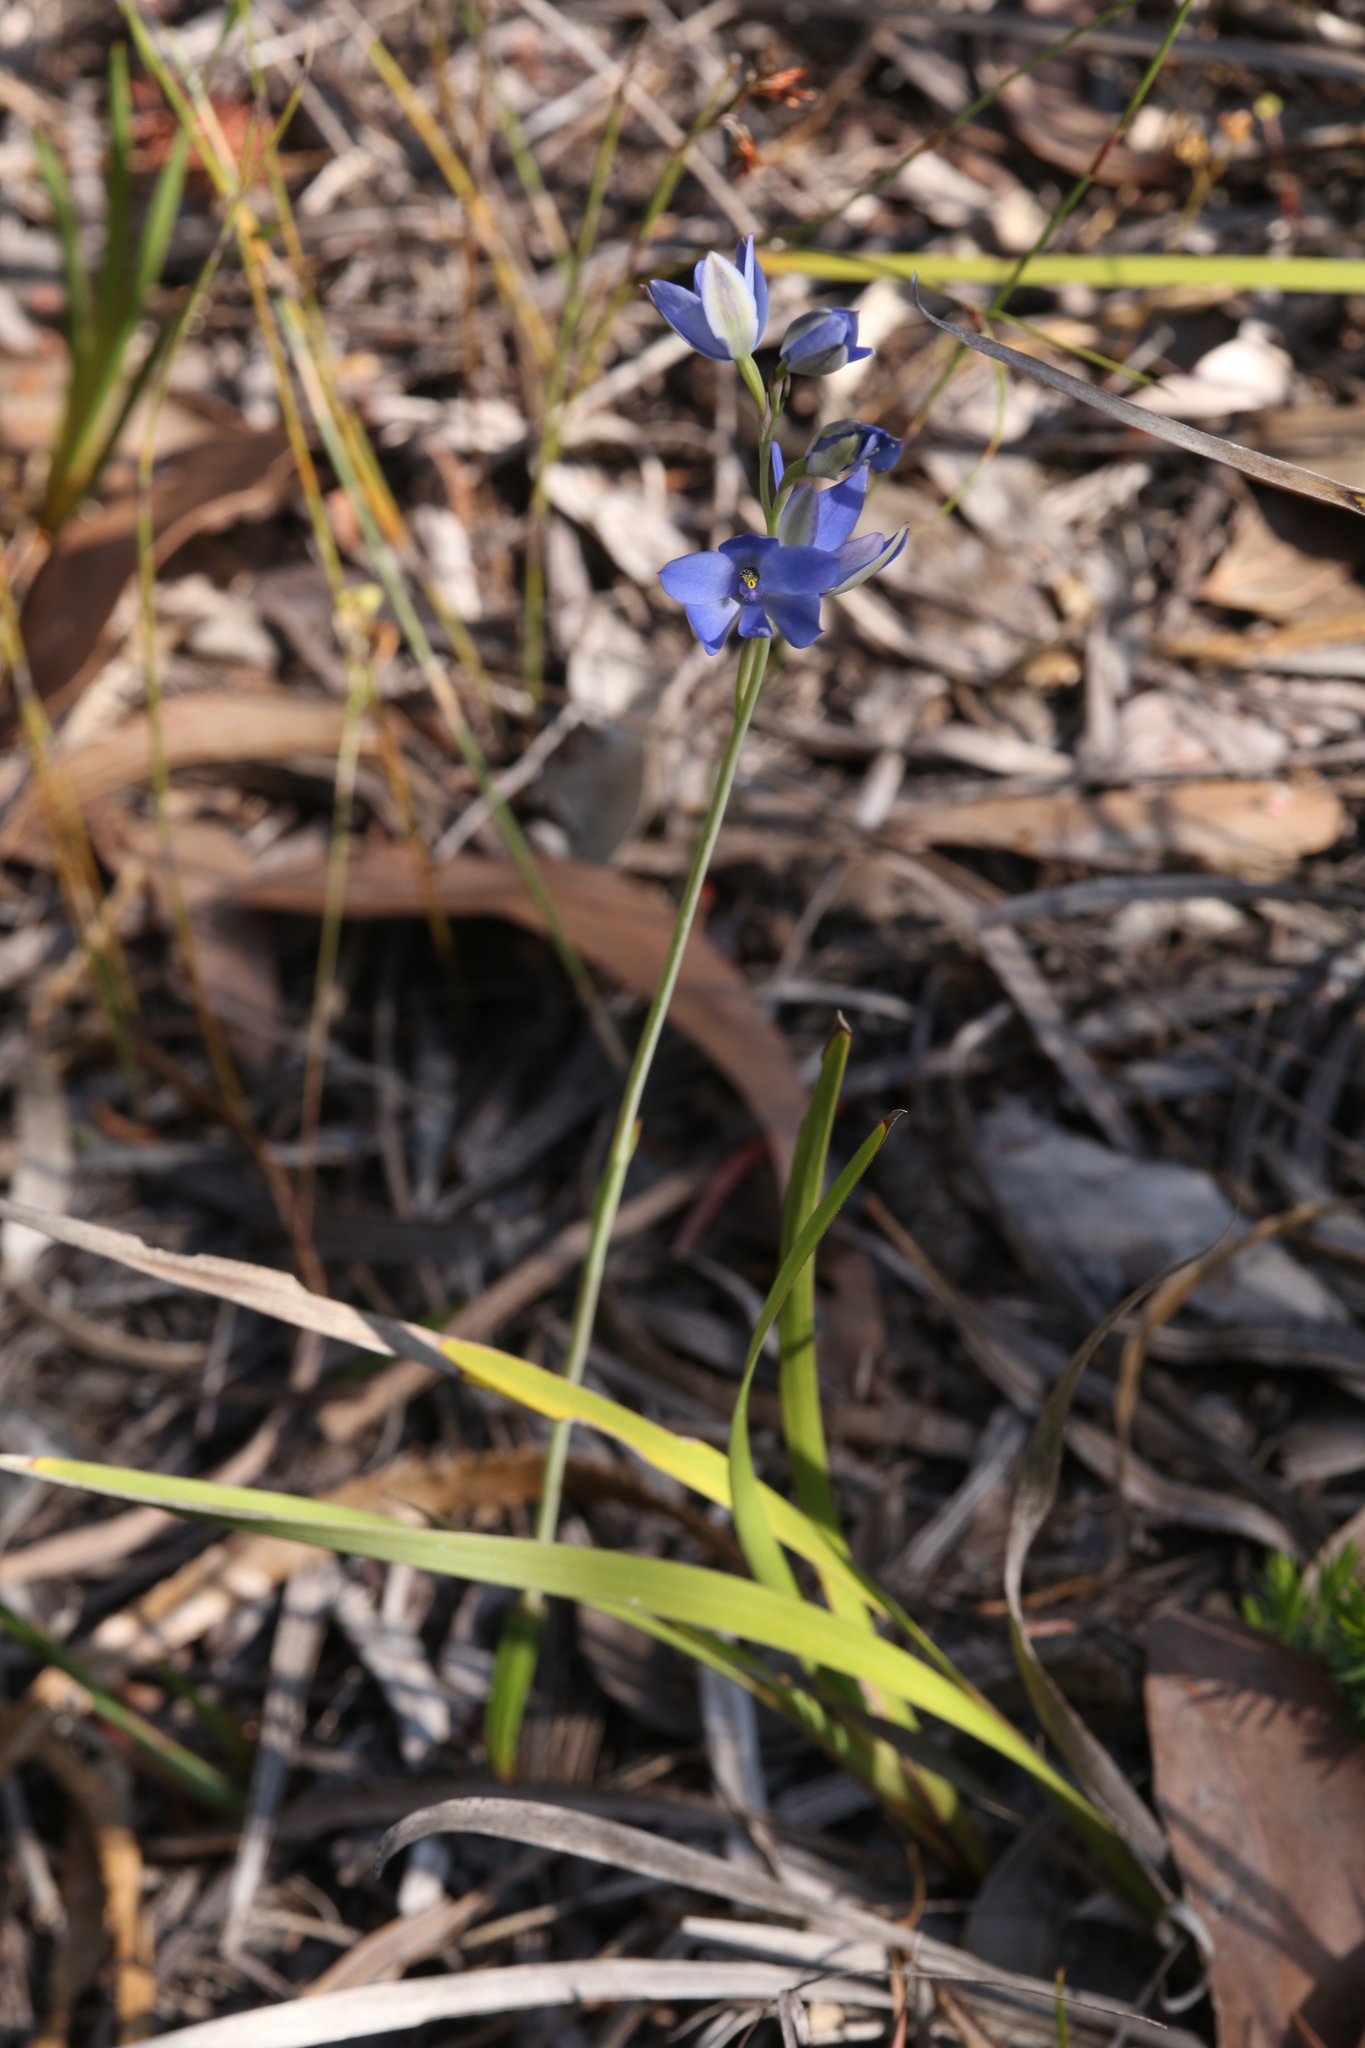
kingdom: Plantae
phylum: Tracheophyta
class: Liliopsida
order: Asparagales
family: Orchidaceae
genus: Thelymitra
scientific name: Thelymitra crinita
